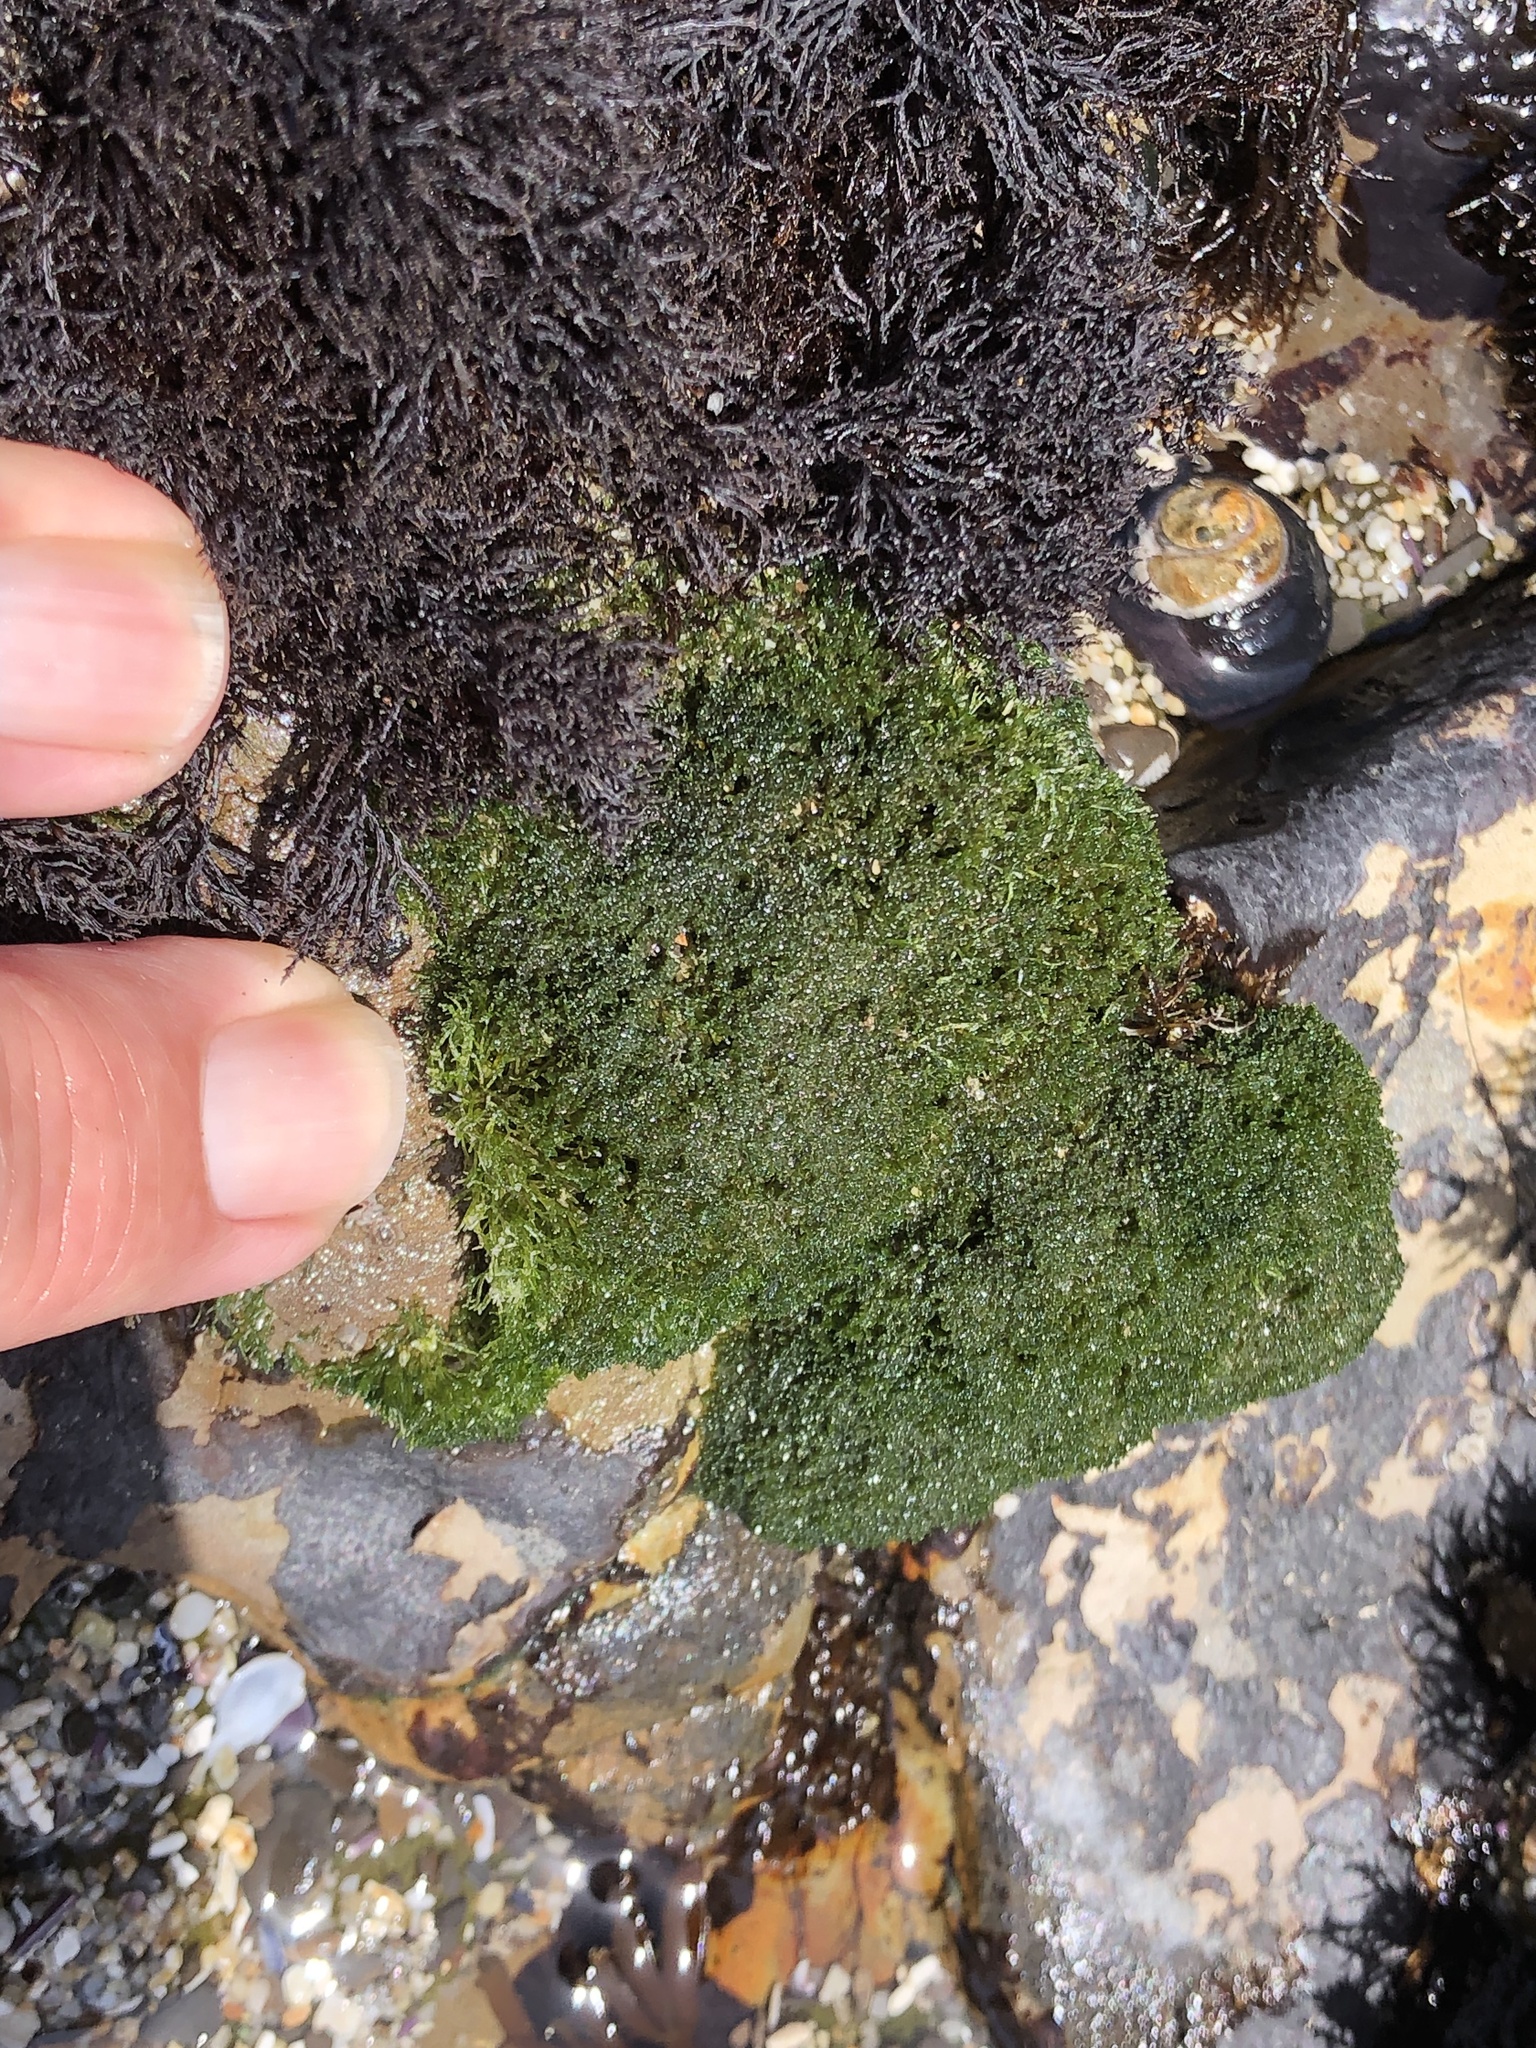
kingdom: Plantae
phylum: Chlorophyta
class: Ulvophyceae
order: Cladophorales
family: Cladophoraceae
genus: Cladophora
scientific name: Cladophora columbiana
